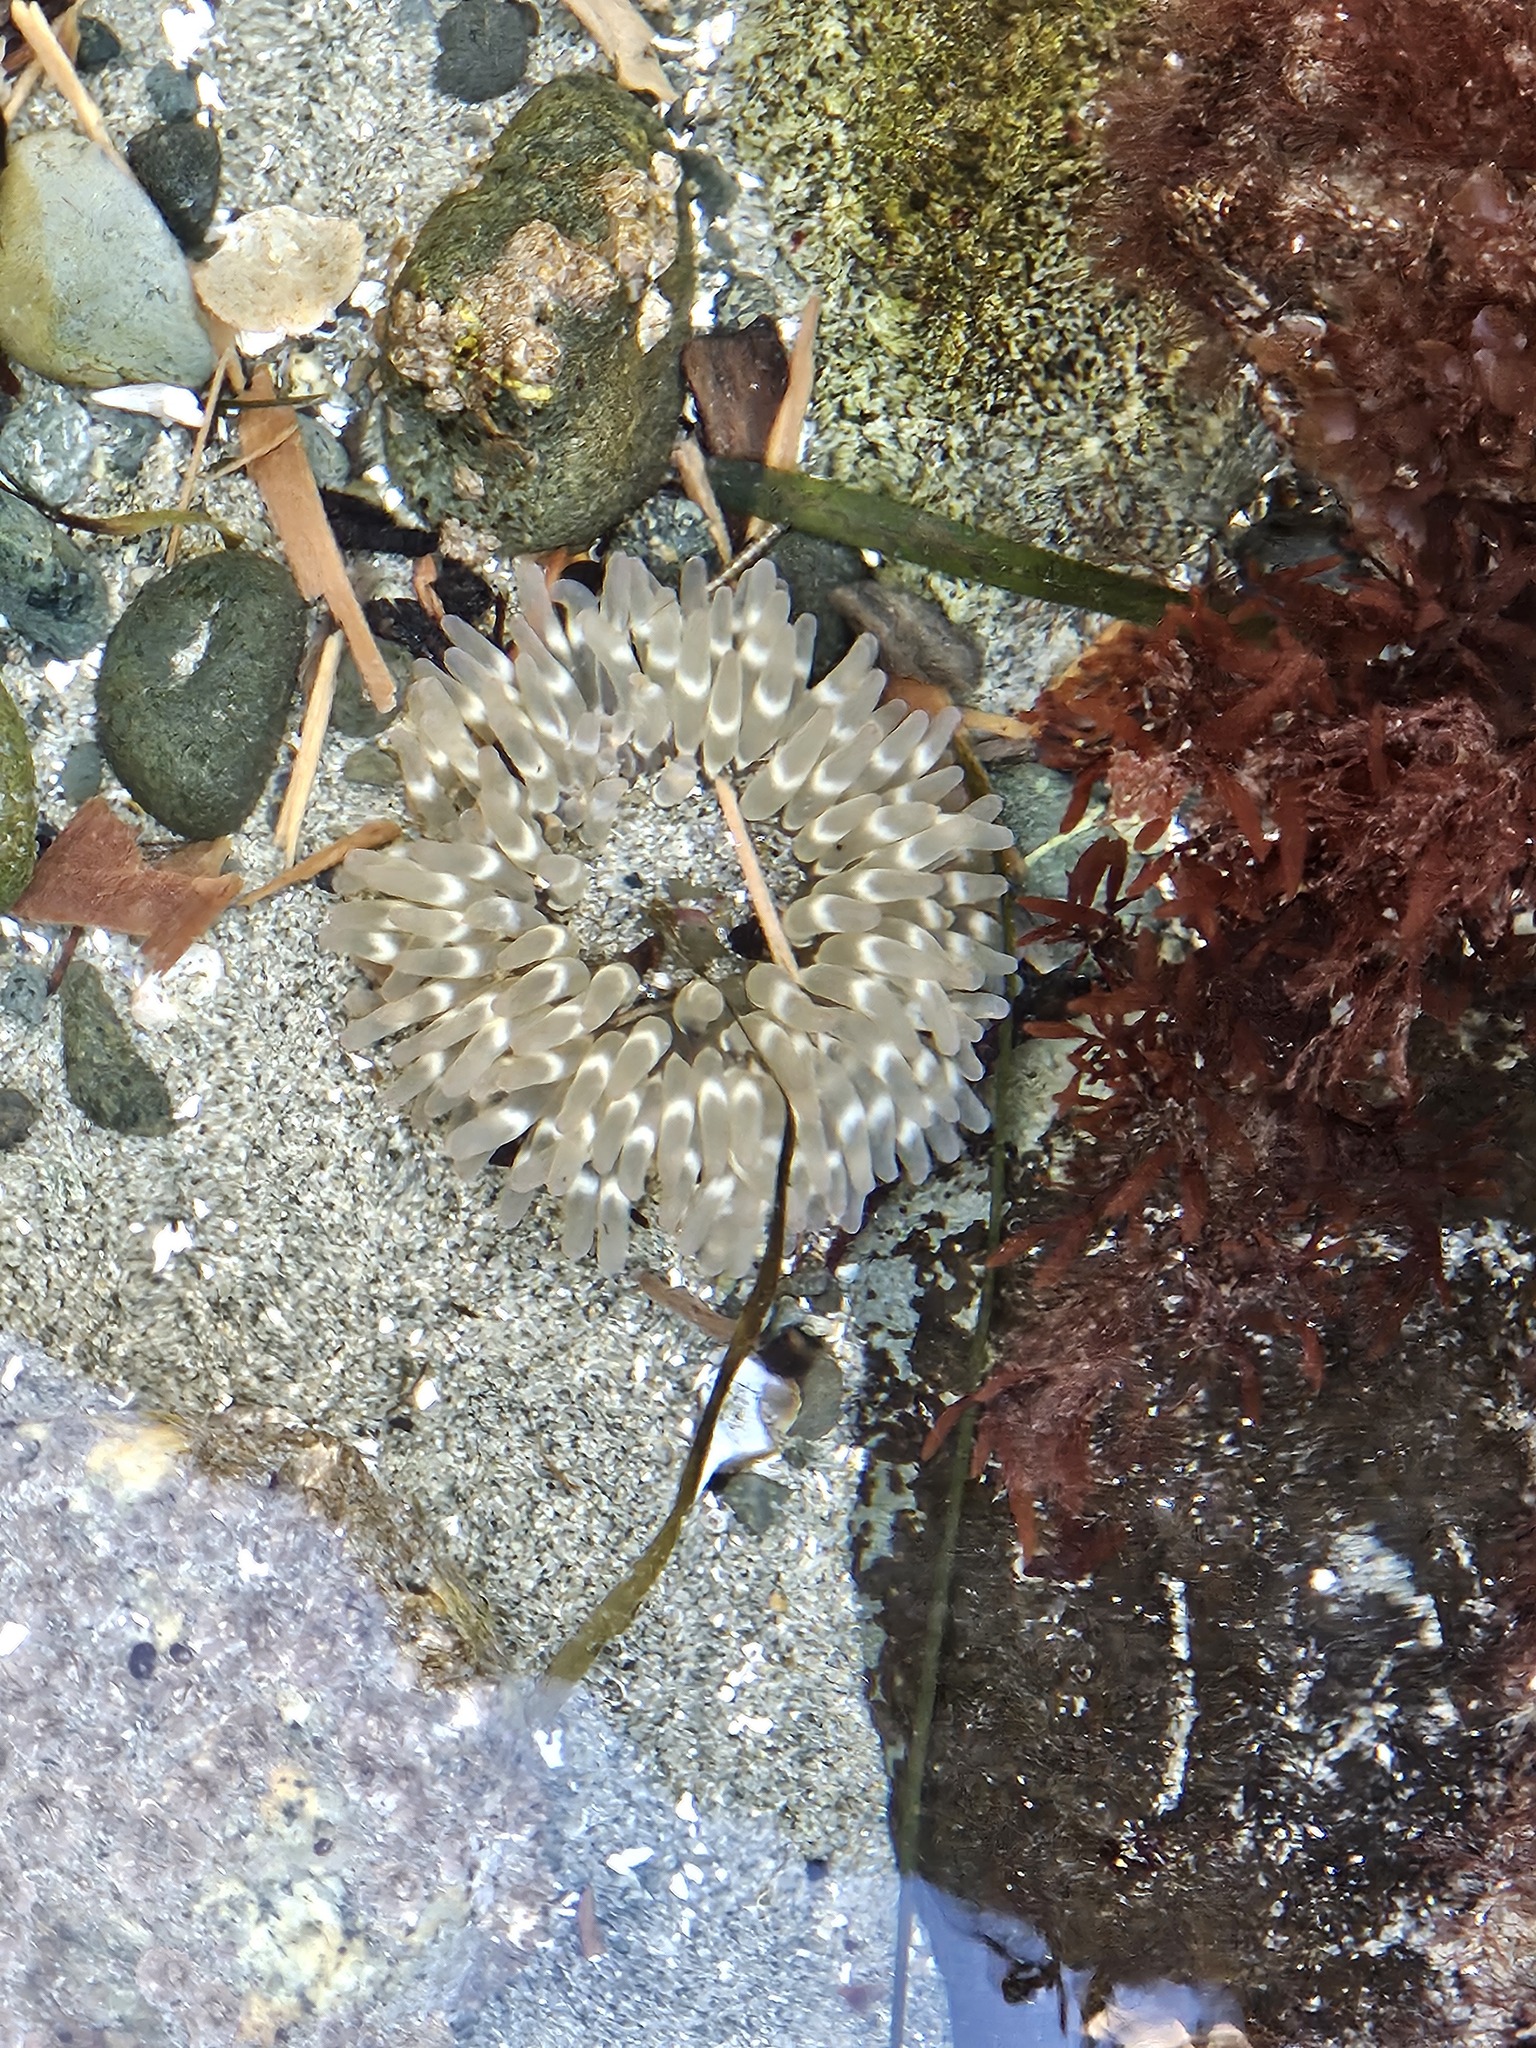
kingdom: Animalia
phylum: Cnidaria
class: Anthozoa
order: Actiniaria
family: Actiniidae
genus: Urticina
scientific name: Urticina clandestina
